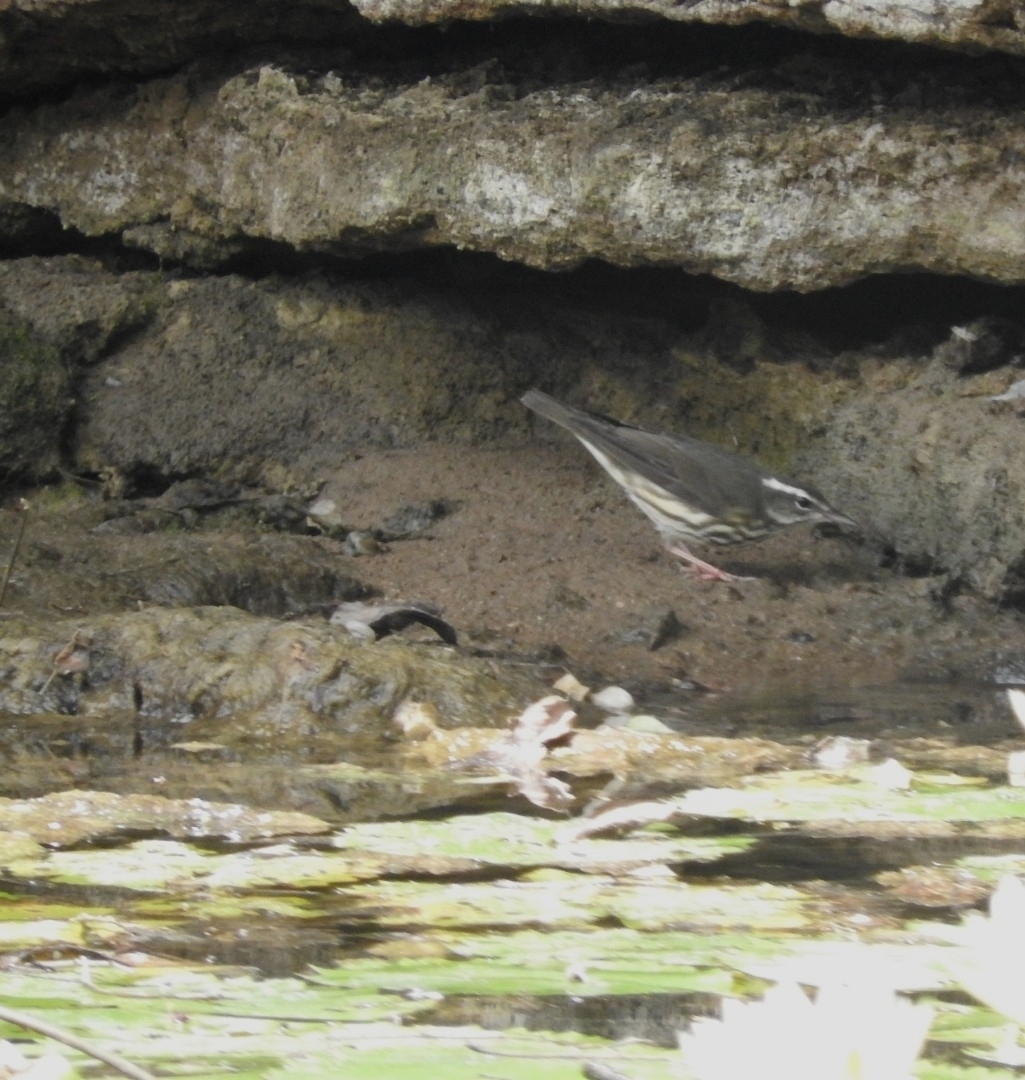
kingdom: Animalia
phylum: Chordata
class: Aves
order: Passeriformes
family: Parulidae
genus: Parkesia
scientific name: Parkesia motacilla
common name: Louisiana waterthrush
